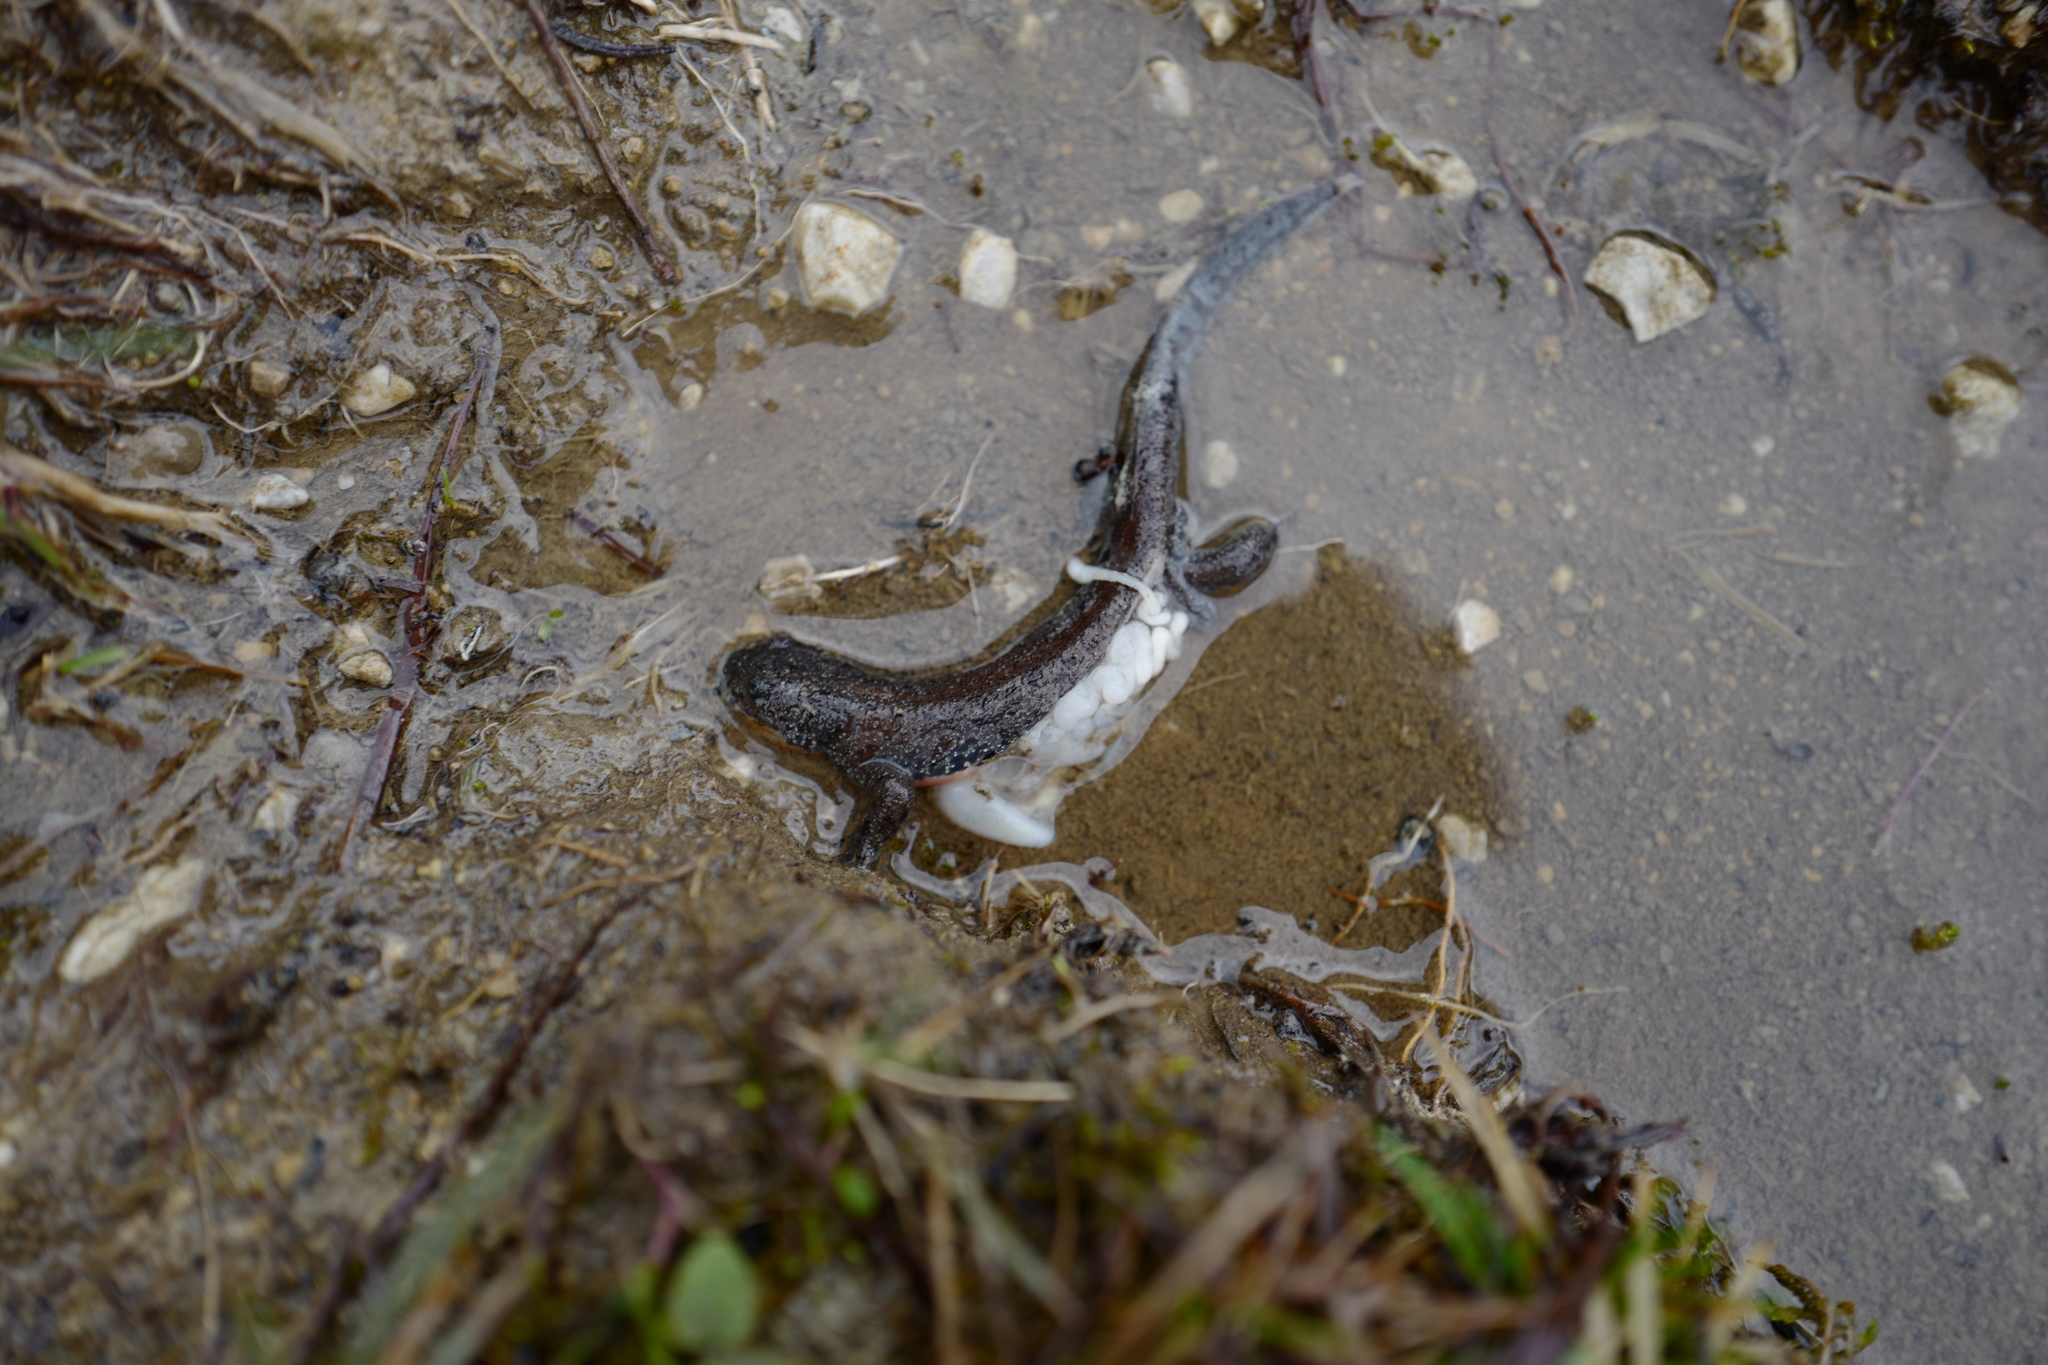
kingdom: Animalia
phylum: Chordata
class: Amphibia
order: Caudata
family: Salamandridae
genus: Ichthyosaura
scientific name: Ichthyosaura alpestris
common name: Alpine newt
